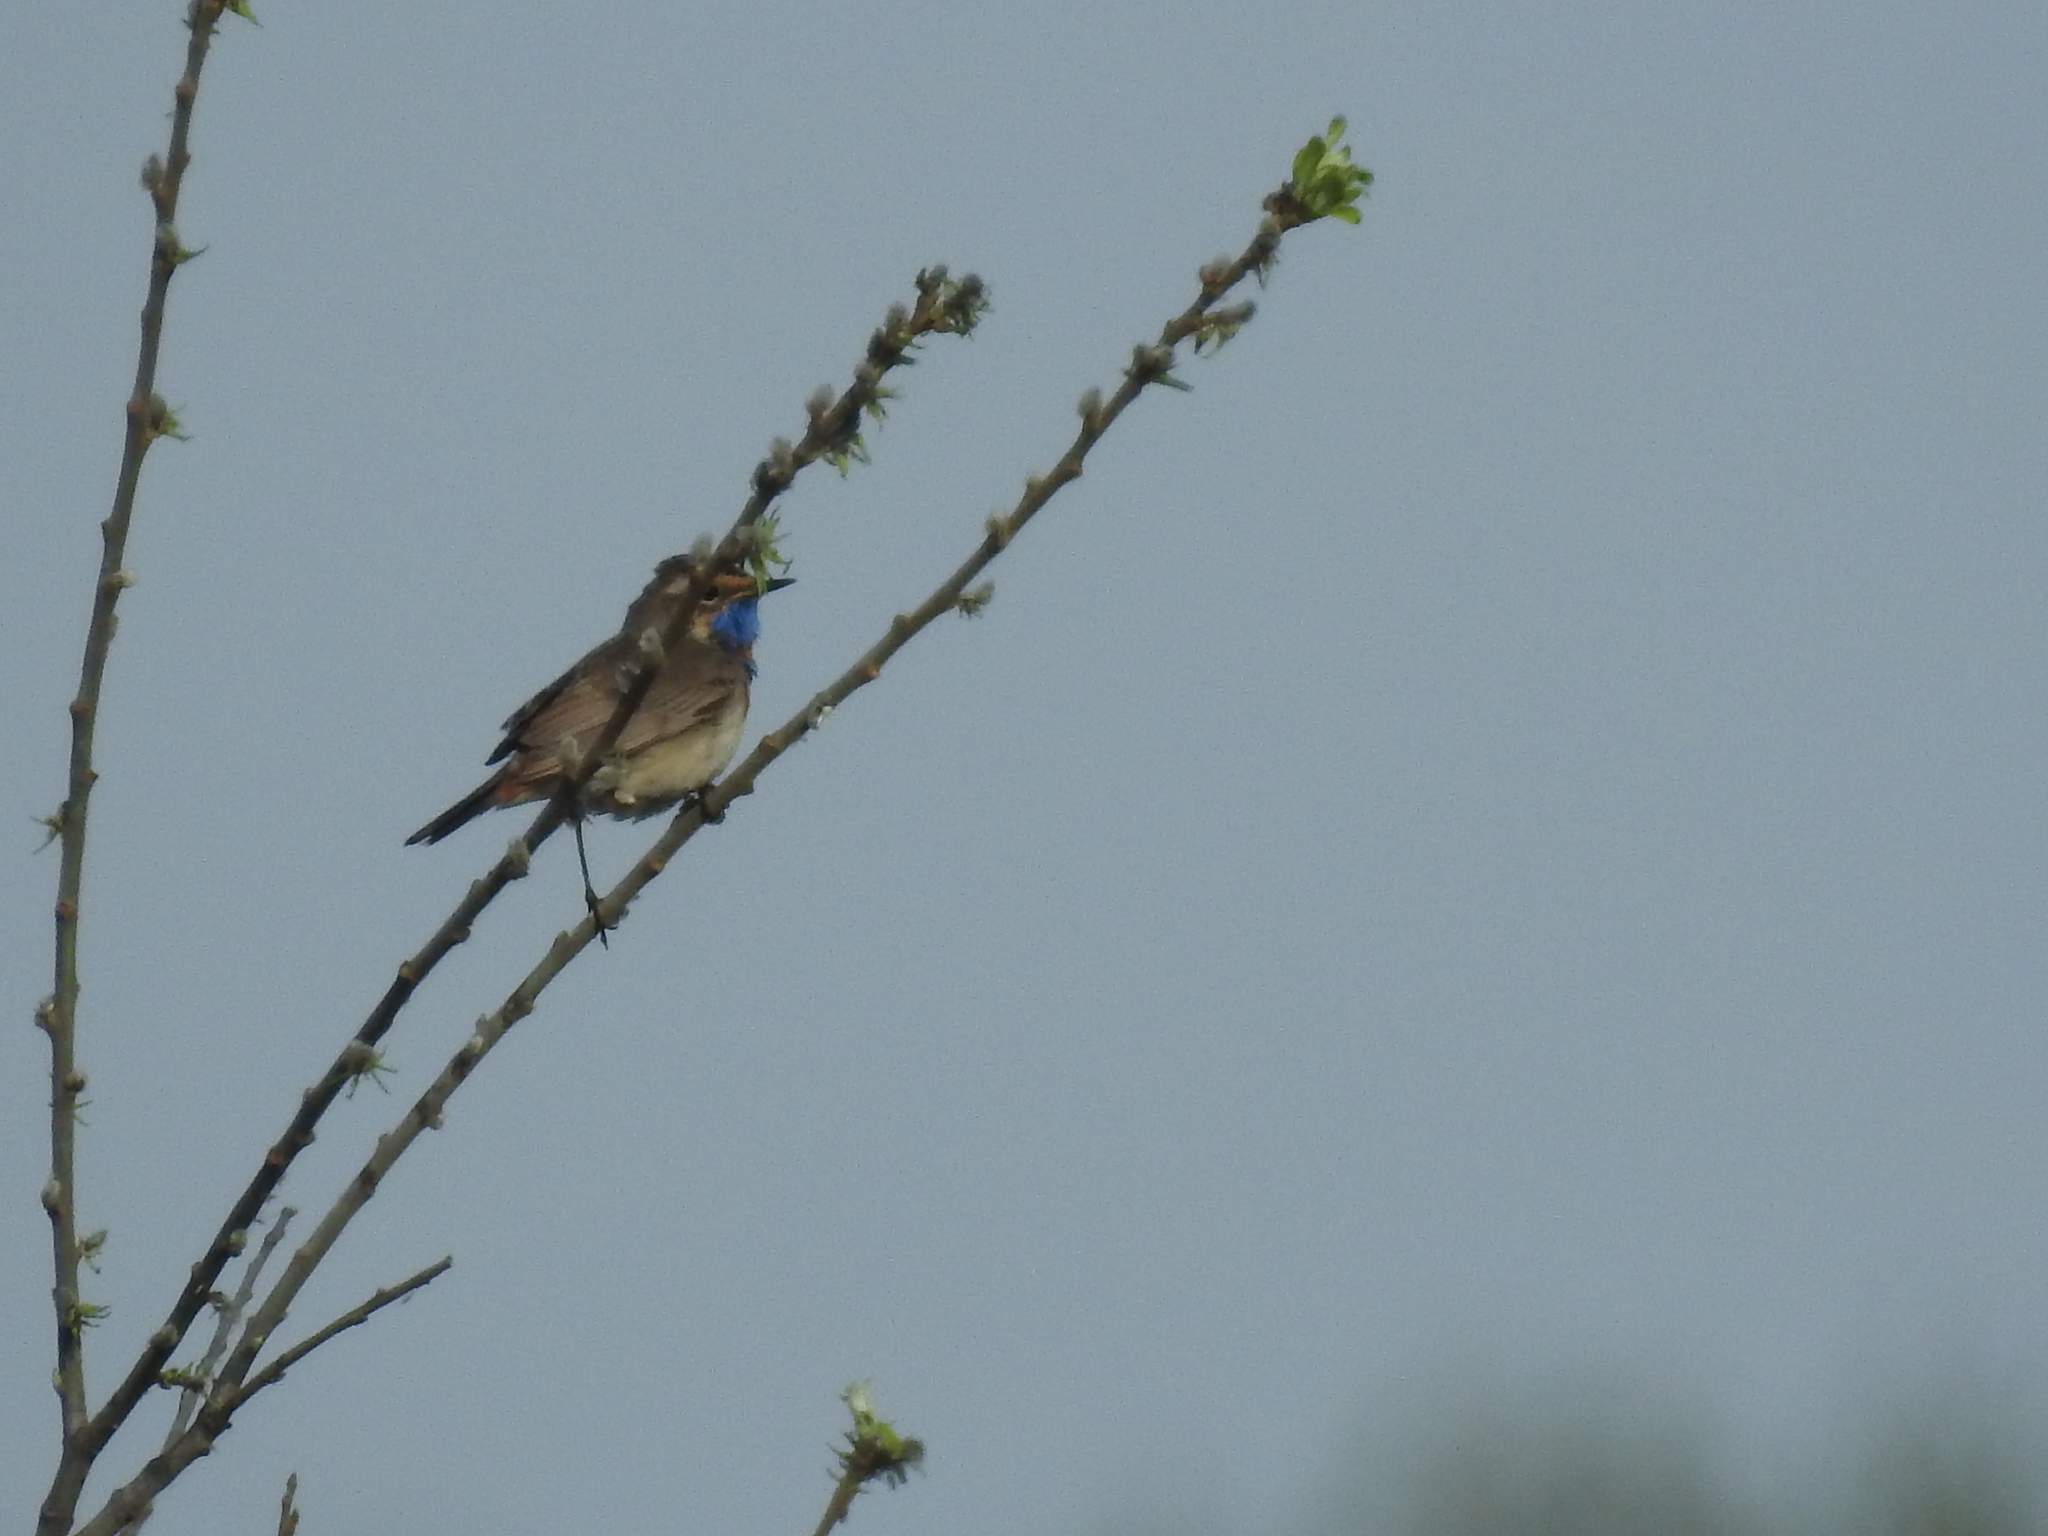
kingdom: Animalia
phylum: Chordata
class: Aves
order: Passeriformes
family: Muscicapidae
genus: Luscinia
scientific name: Luscinia svecica
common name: Bluethroat
